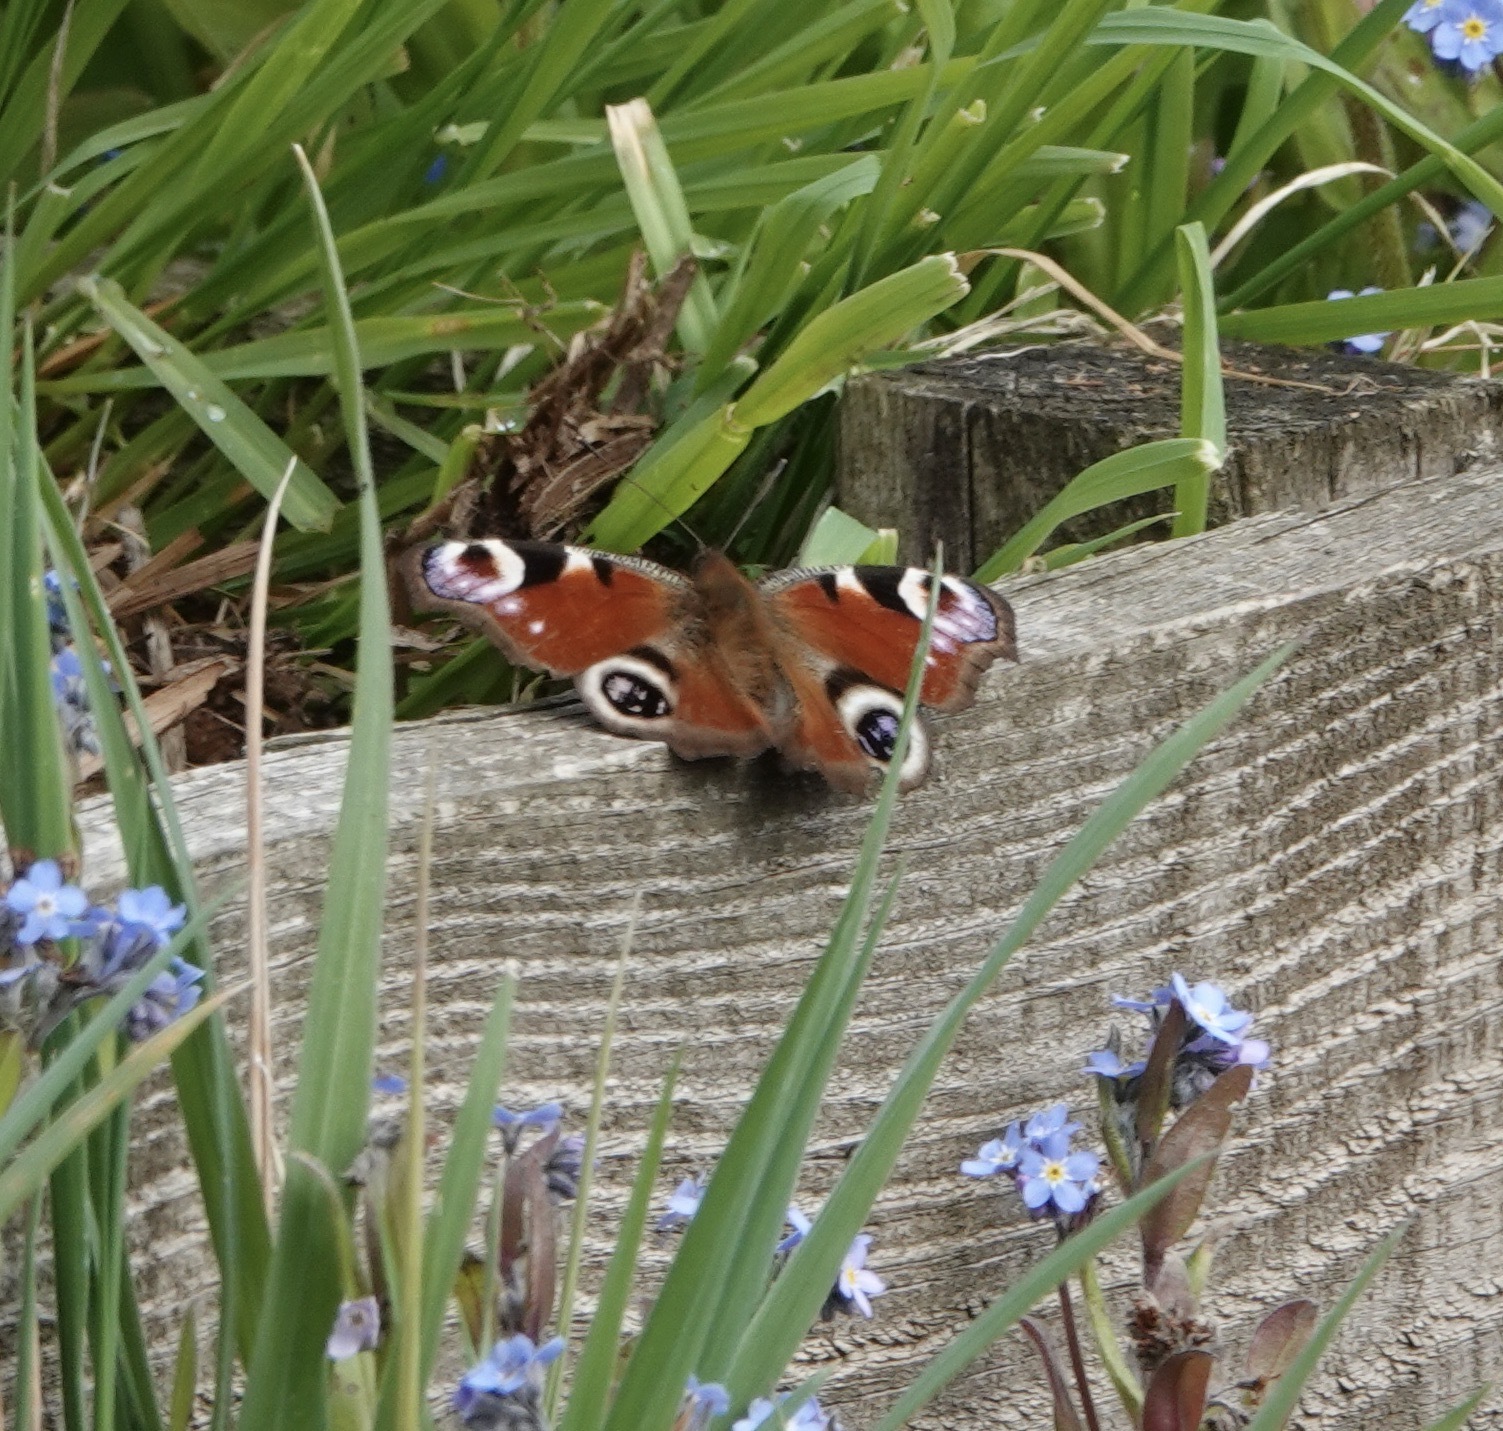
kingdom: Animalia
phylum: Arthropoda
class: Insecta
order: Lepidoptera
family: Nymphalidae
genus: Aglais
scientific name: Aglais io
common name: Peacock
